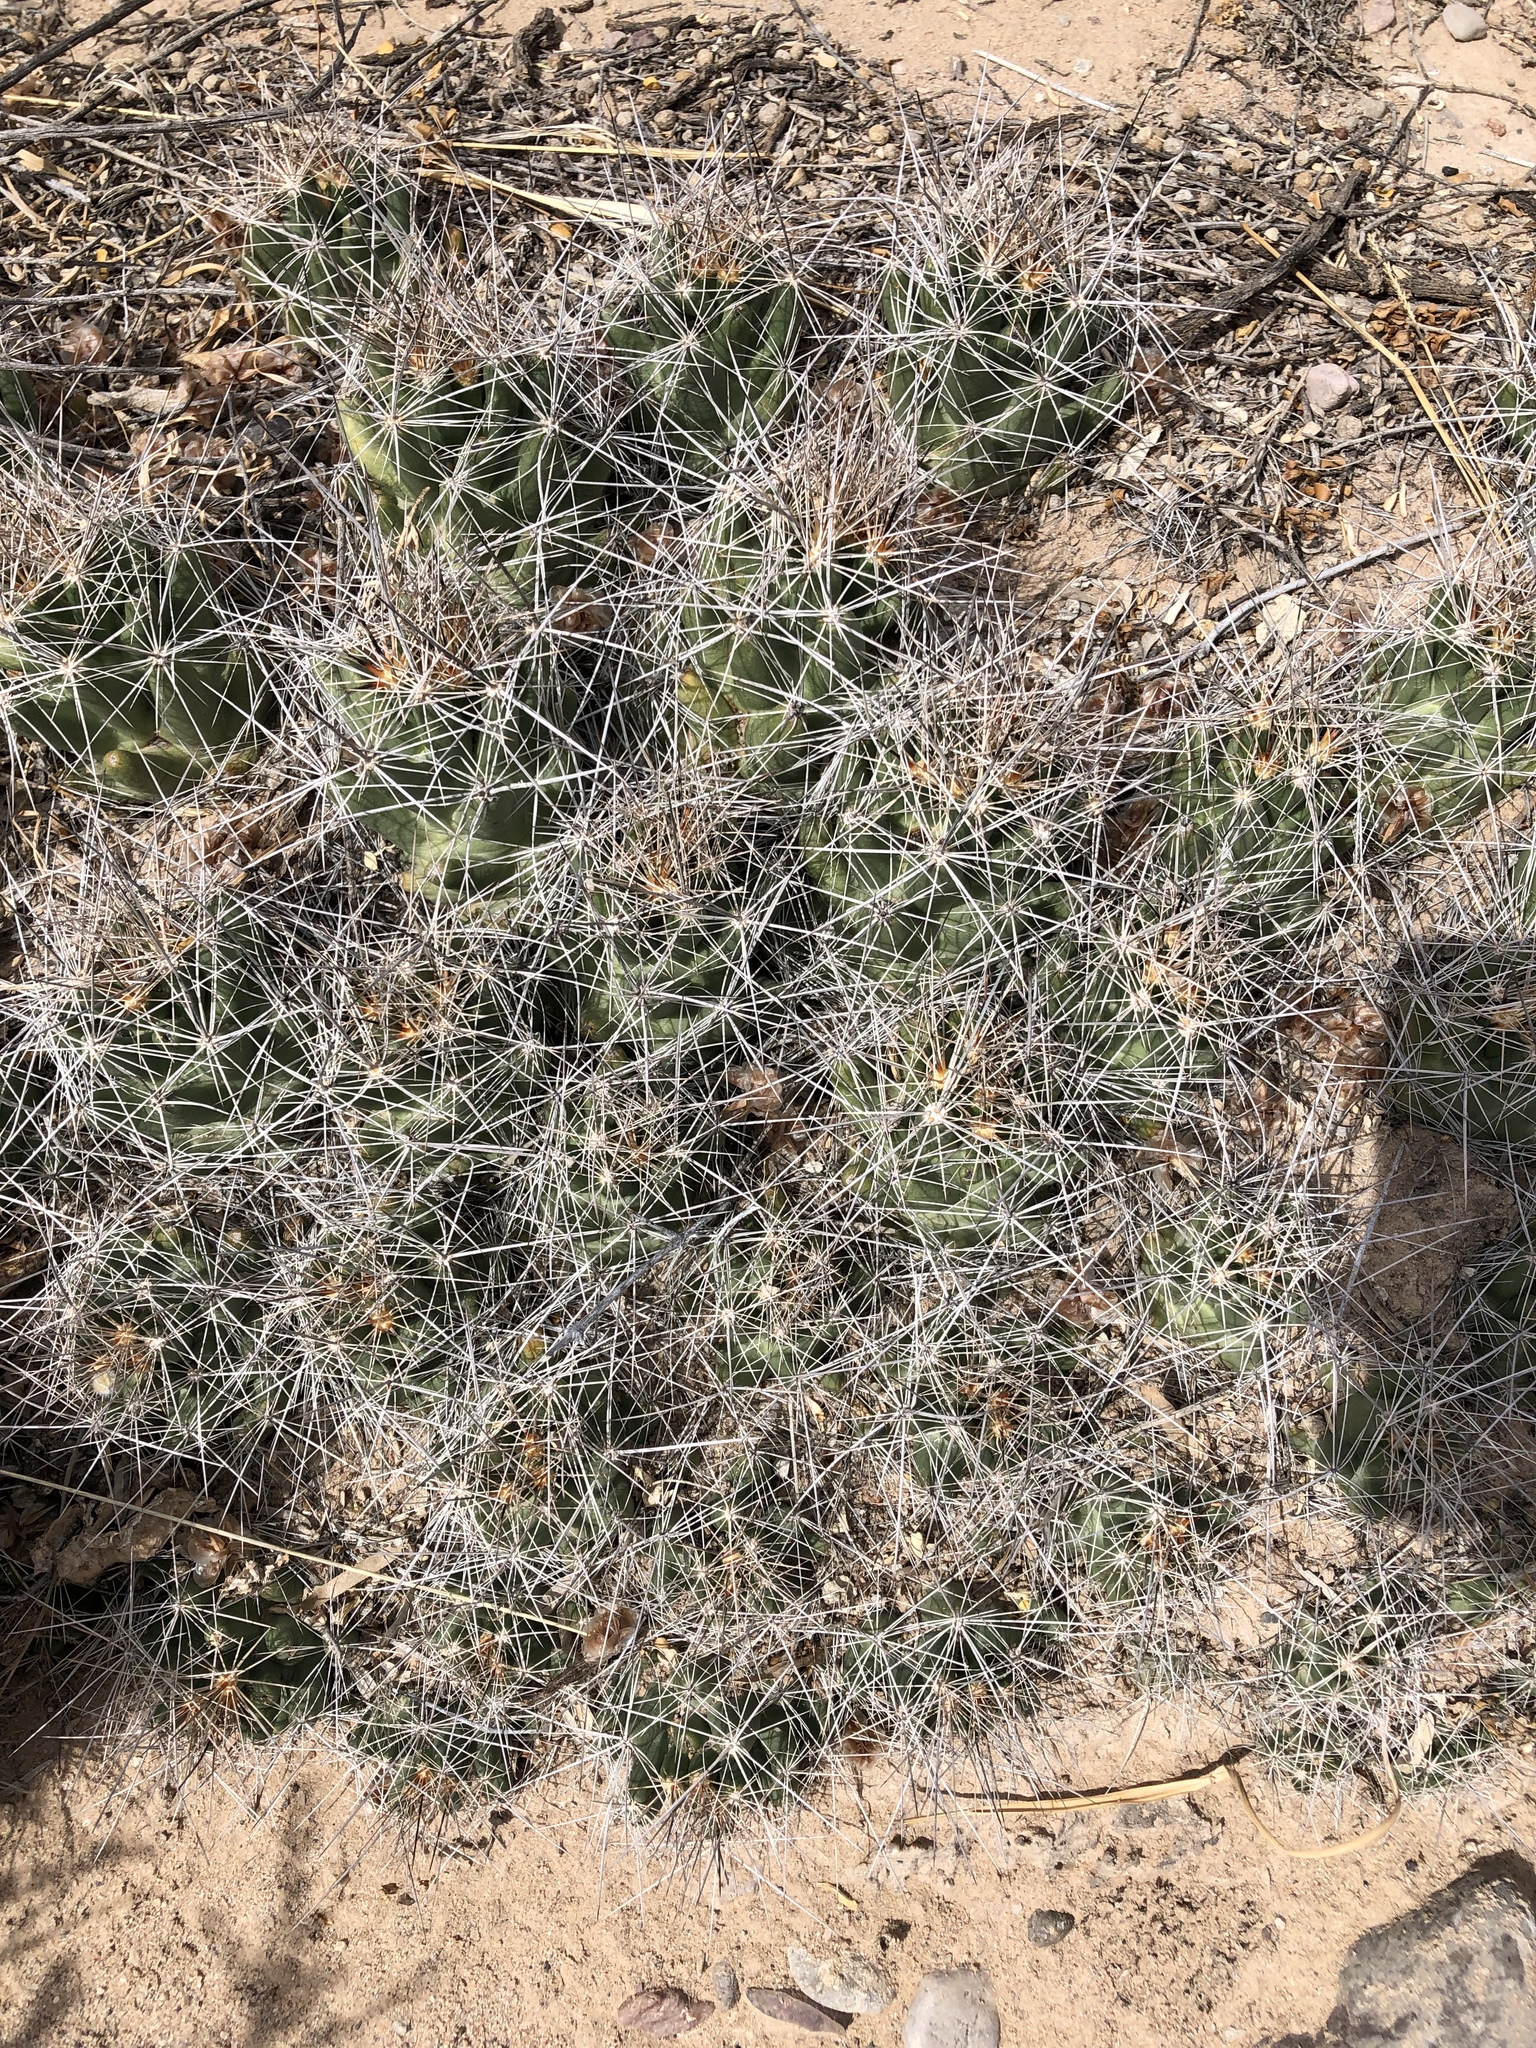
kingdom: Plantae
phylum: Tracheophyta
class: Magnoliopsida
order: Caryophyllales
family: Cactaceae
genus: Coryphantha
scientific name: Coryphantha macromeris
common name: Nipple beehive cactus
